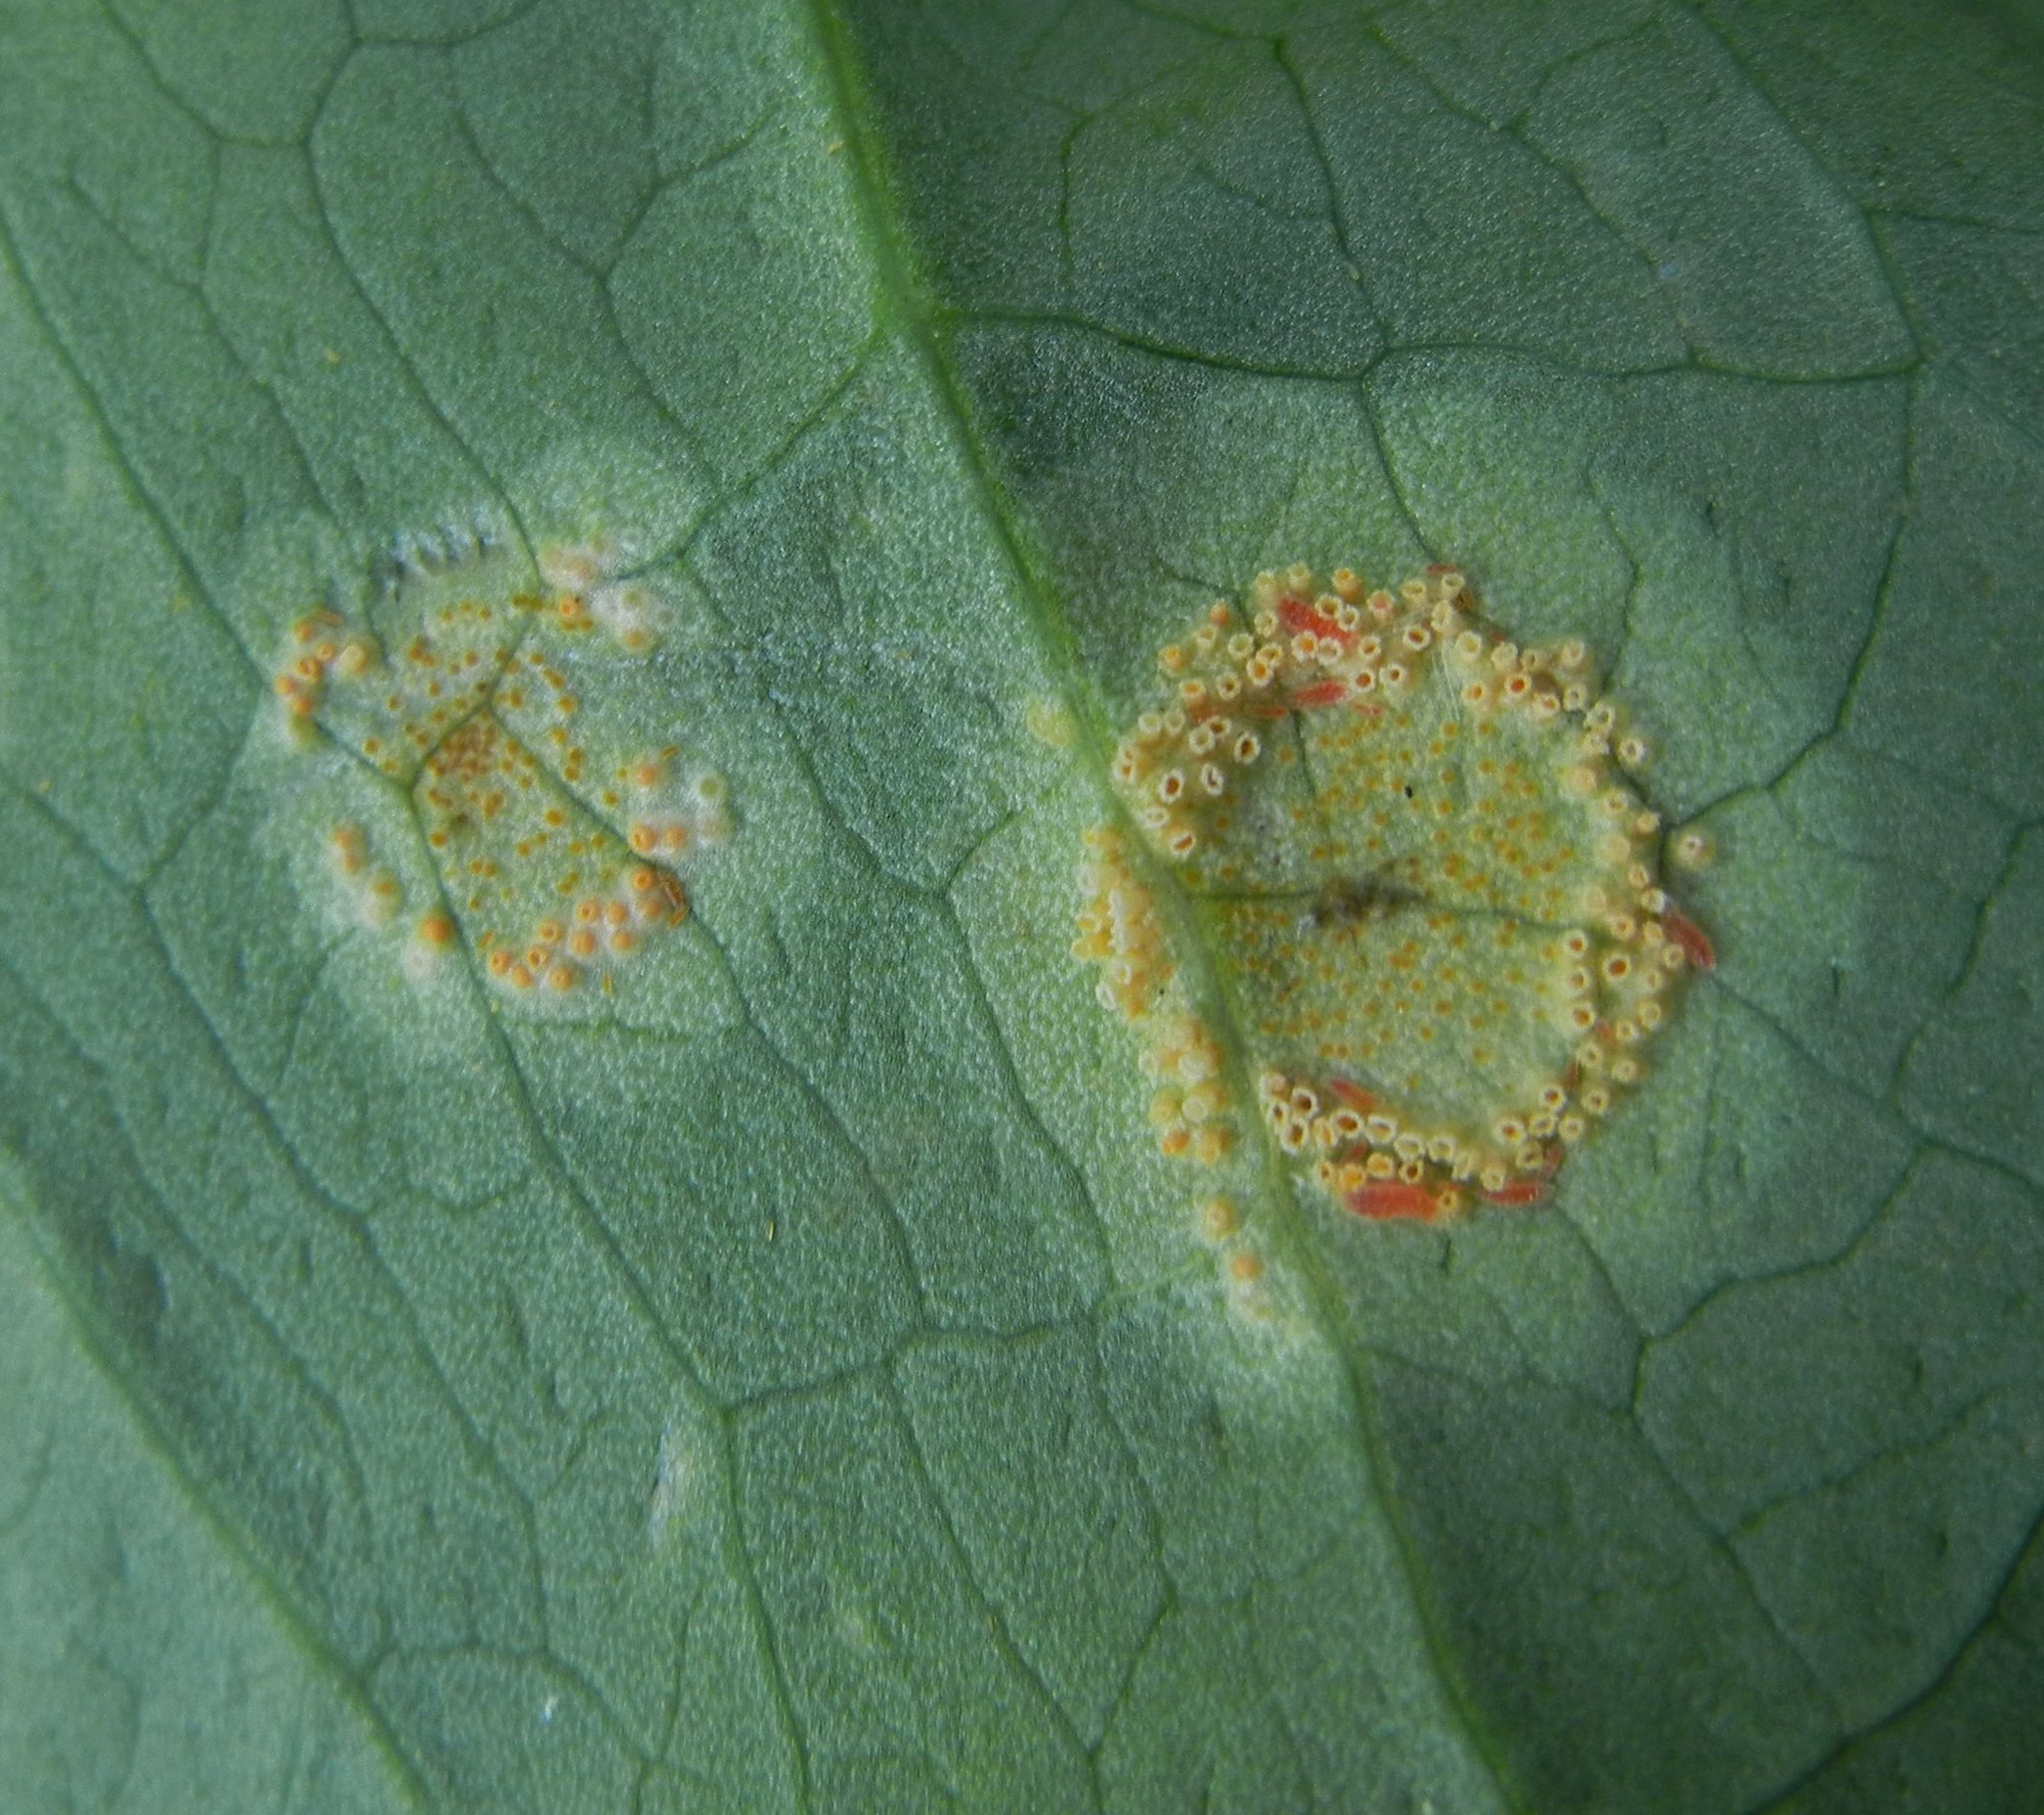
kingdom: Fungi
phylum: Basidiomycota
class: Pucciniomycetes
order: Pucciniales
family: Pucciniaceae
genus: Puccinia
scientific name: Puccinia sessilis
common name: Arum rust
